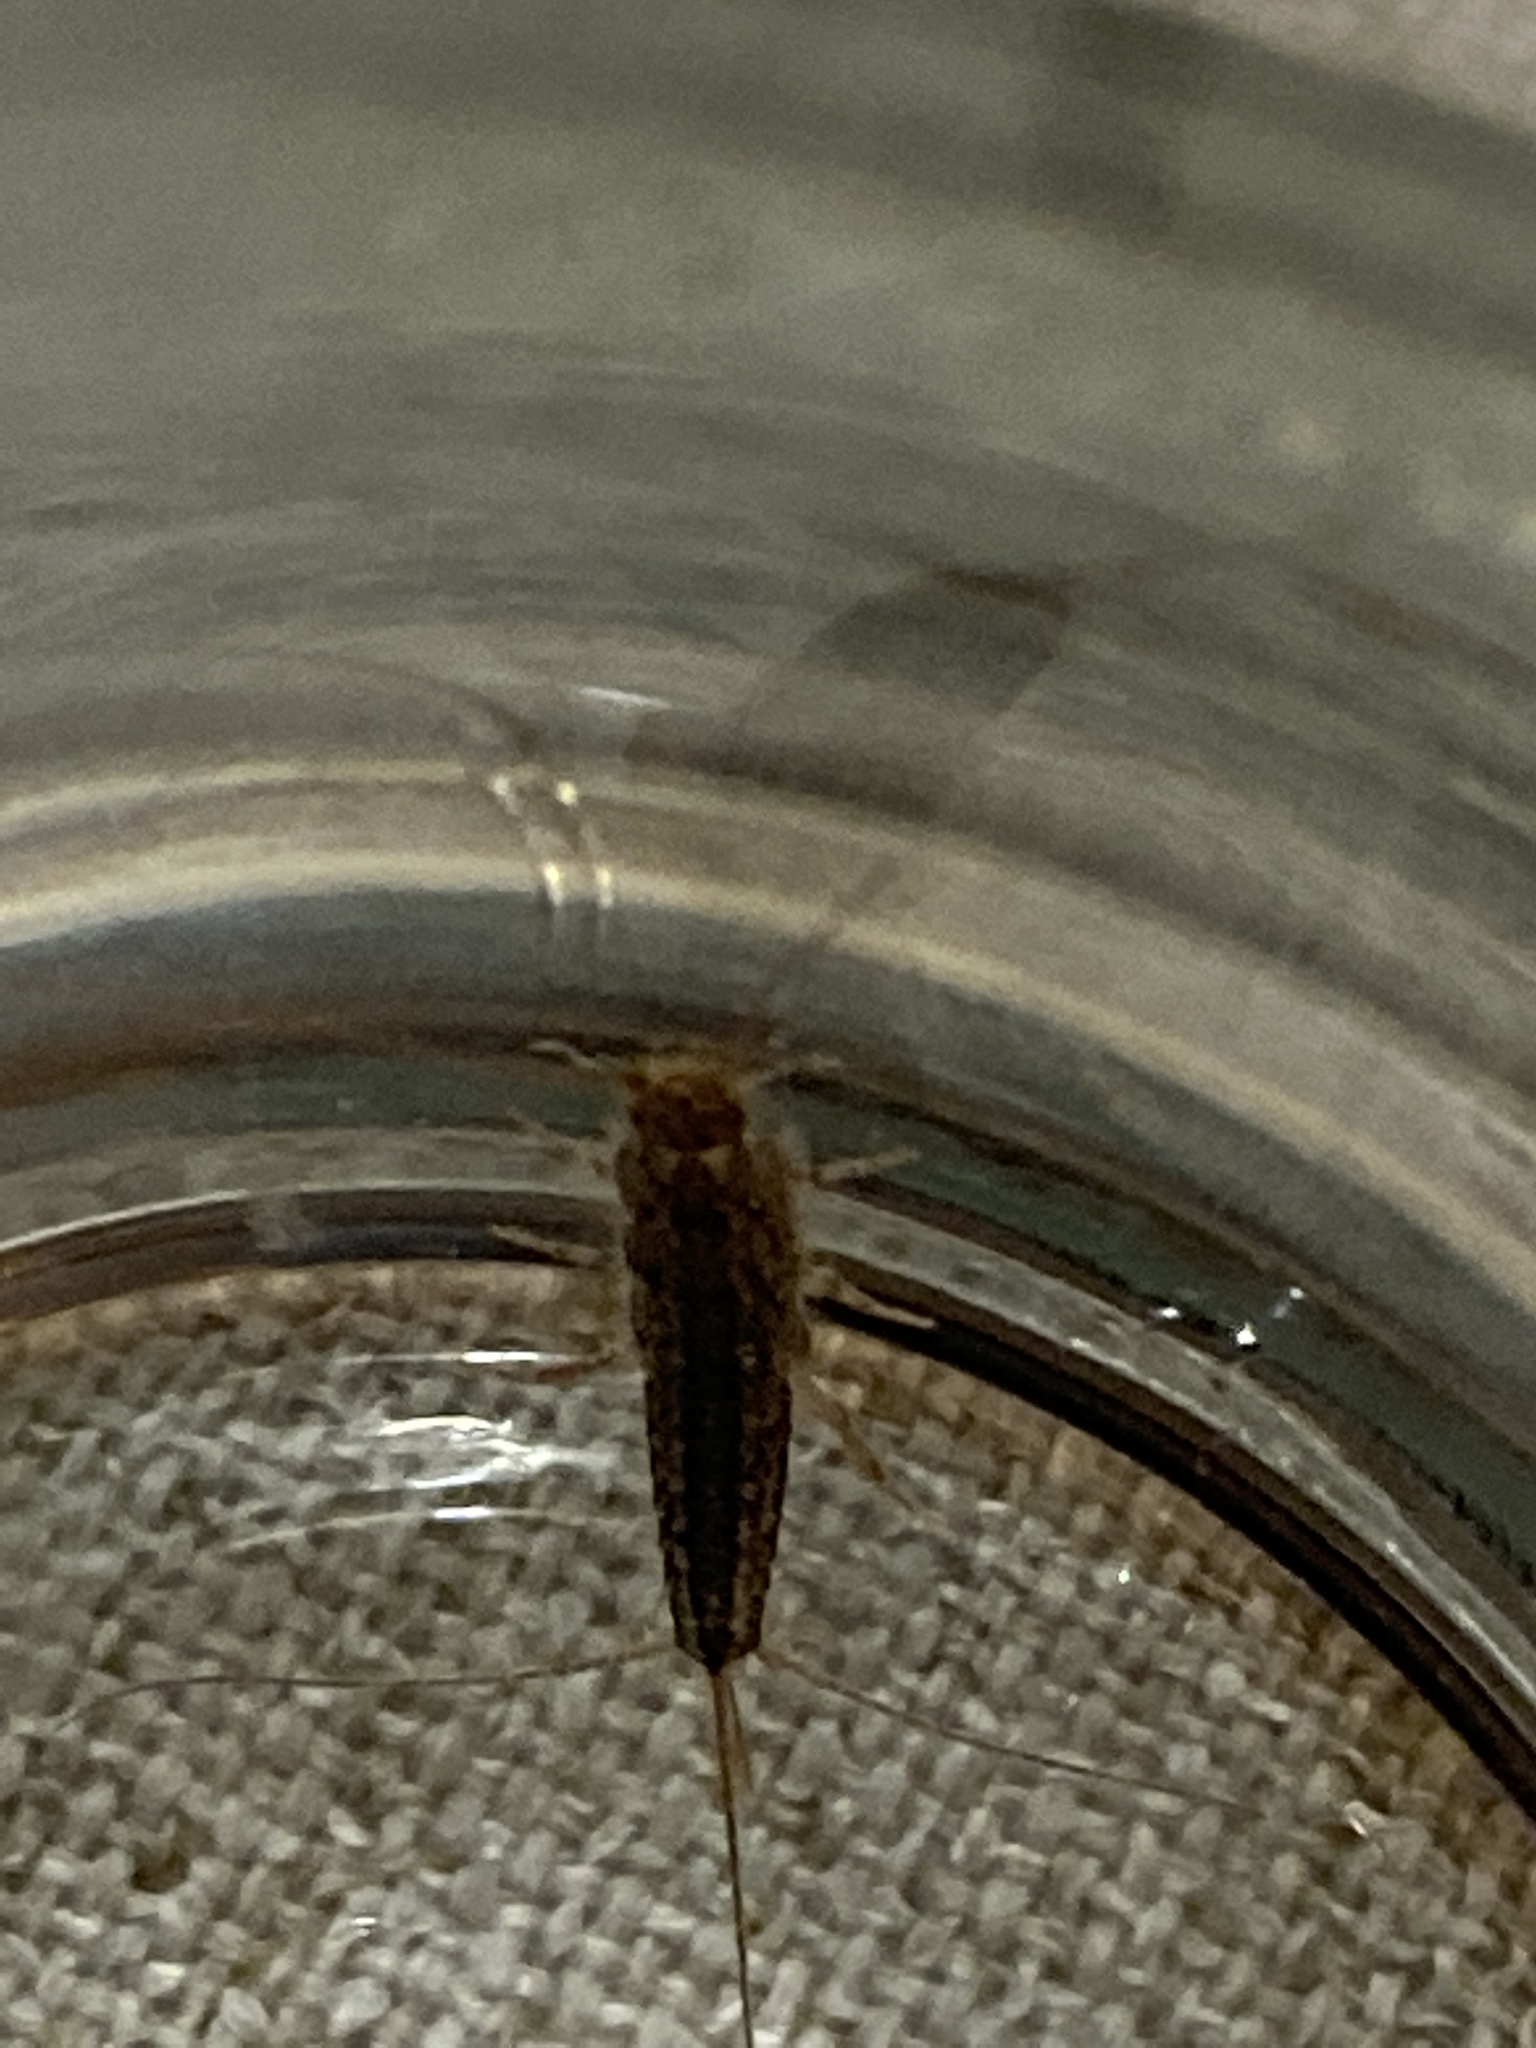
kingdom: Animalia
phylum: Arthropoda
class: Insecta
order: Zygentoma
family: Lepismatidae
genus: Ctenolepisma
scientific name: Ctenolepisma lineata
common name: Four-lined silverfish
